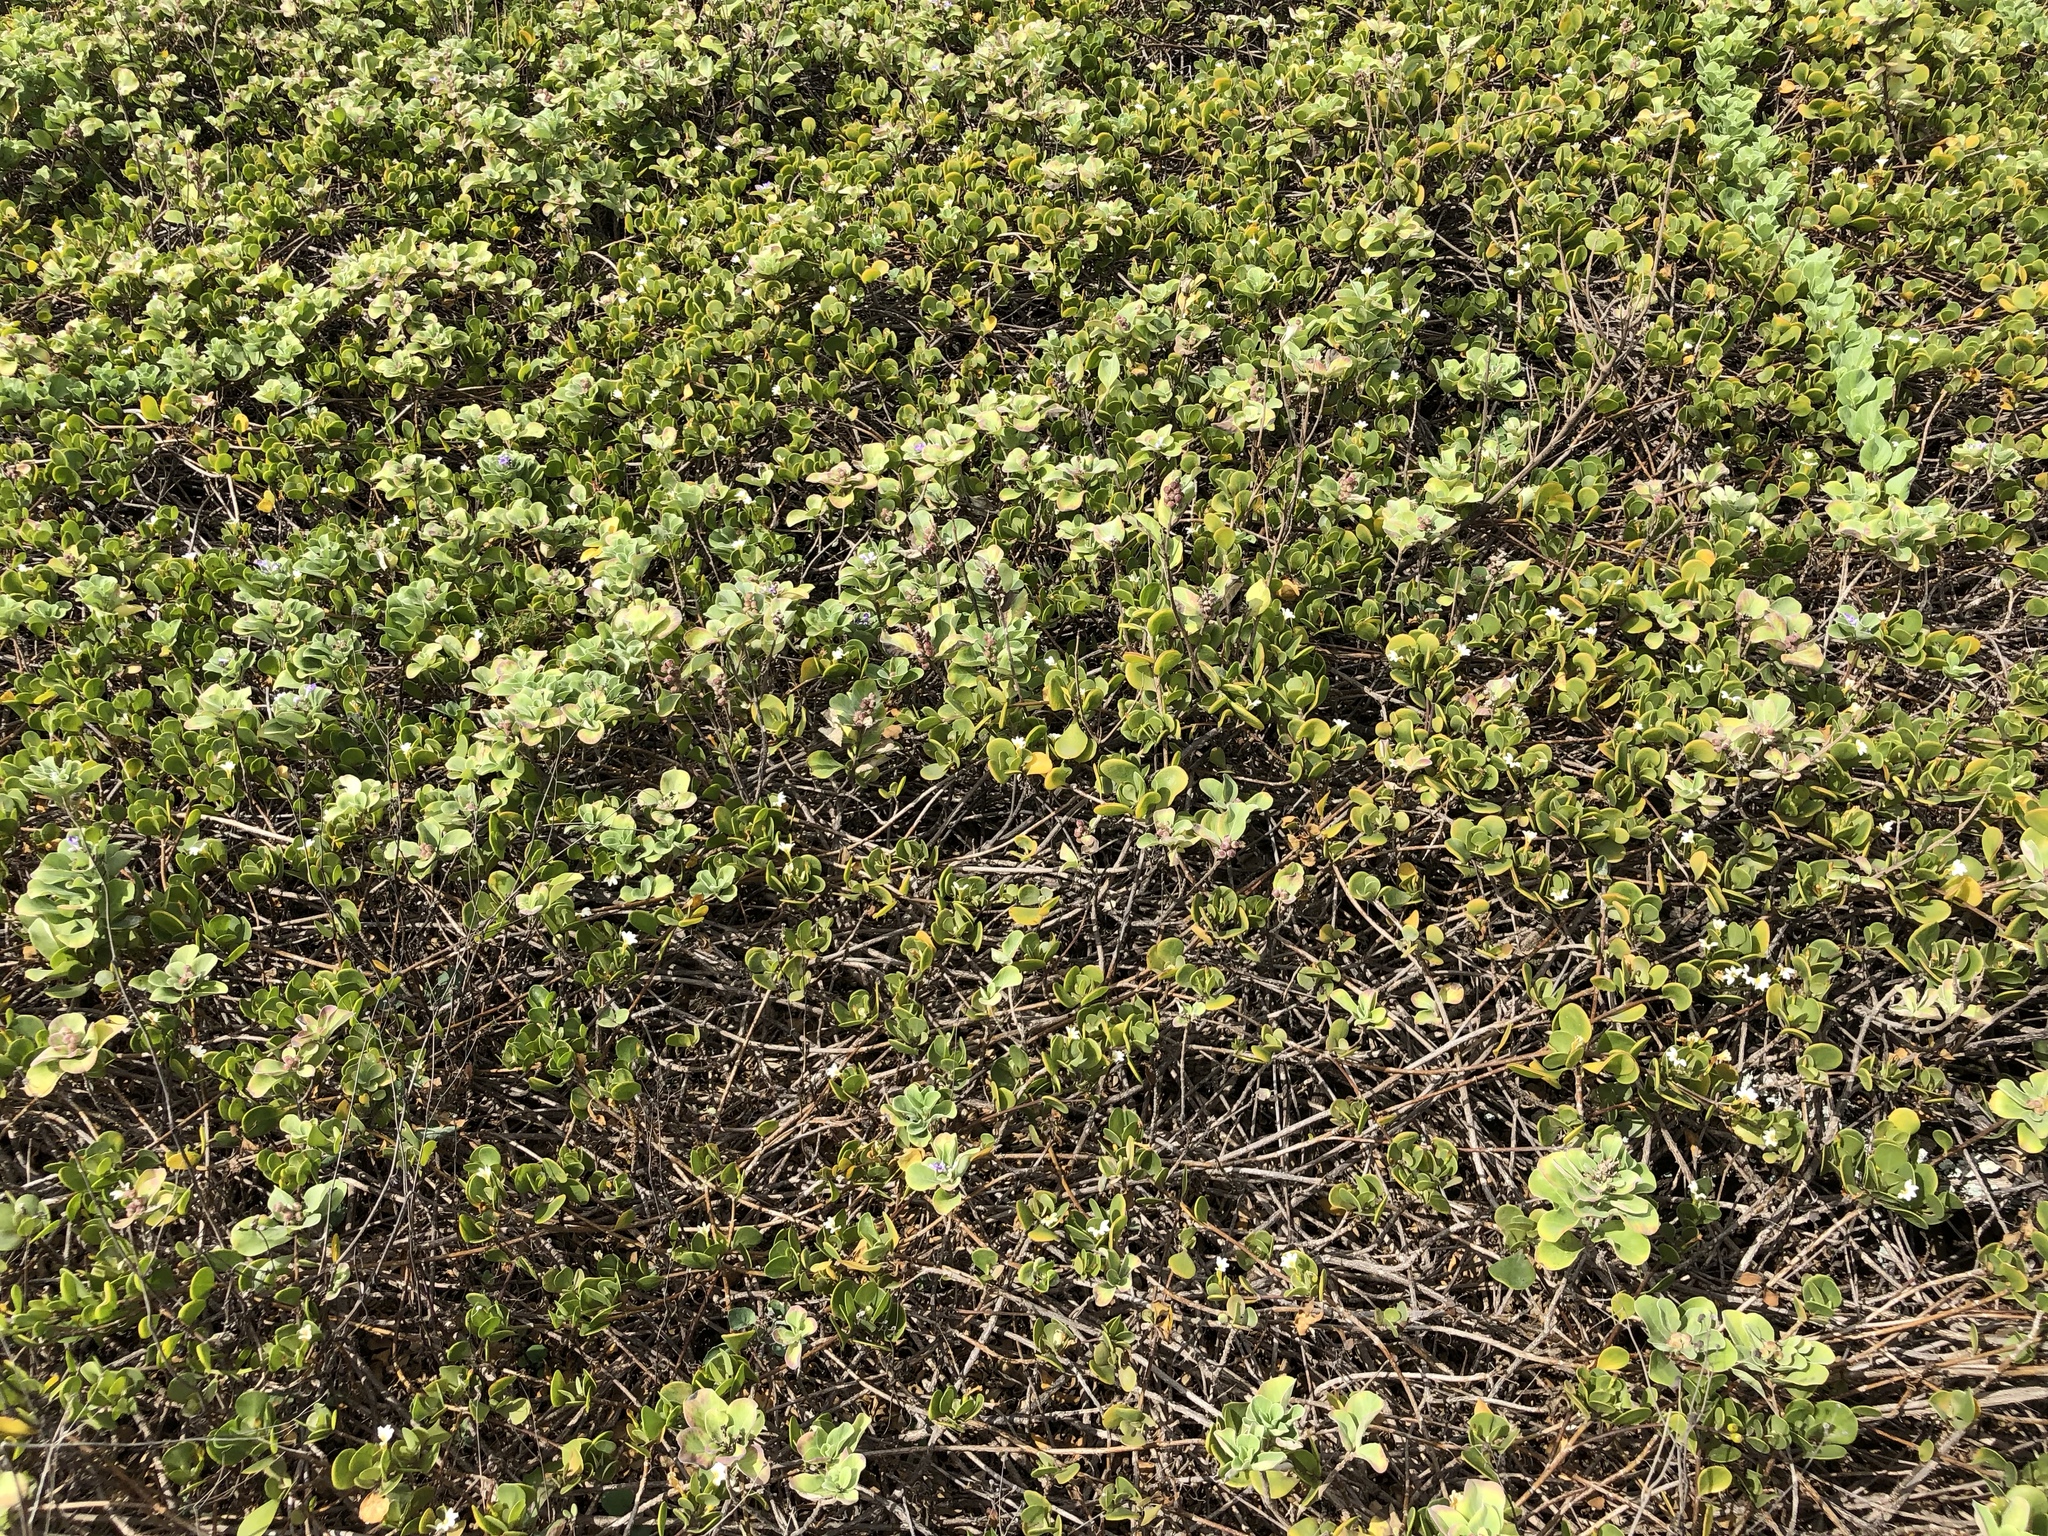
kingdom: Plantae
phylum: Tracheophyta
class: Magnoliopsida
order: Lamiales
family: Lamiaceae
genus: Vitex
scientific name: Vitex rotundifolia
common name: Beach vitex
